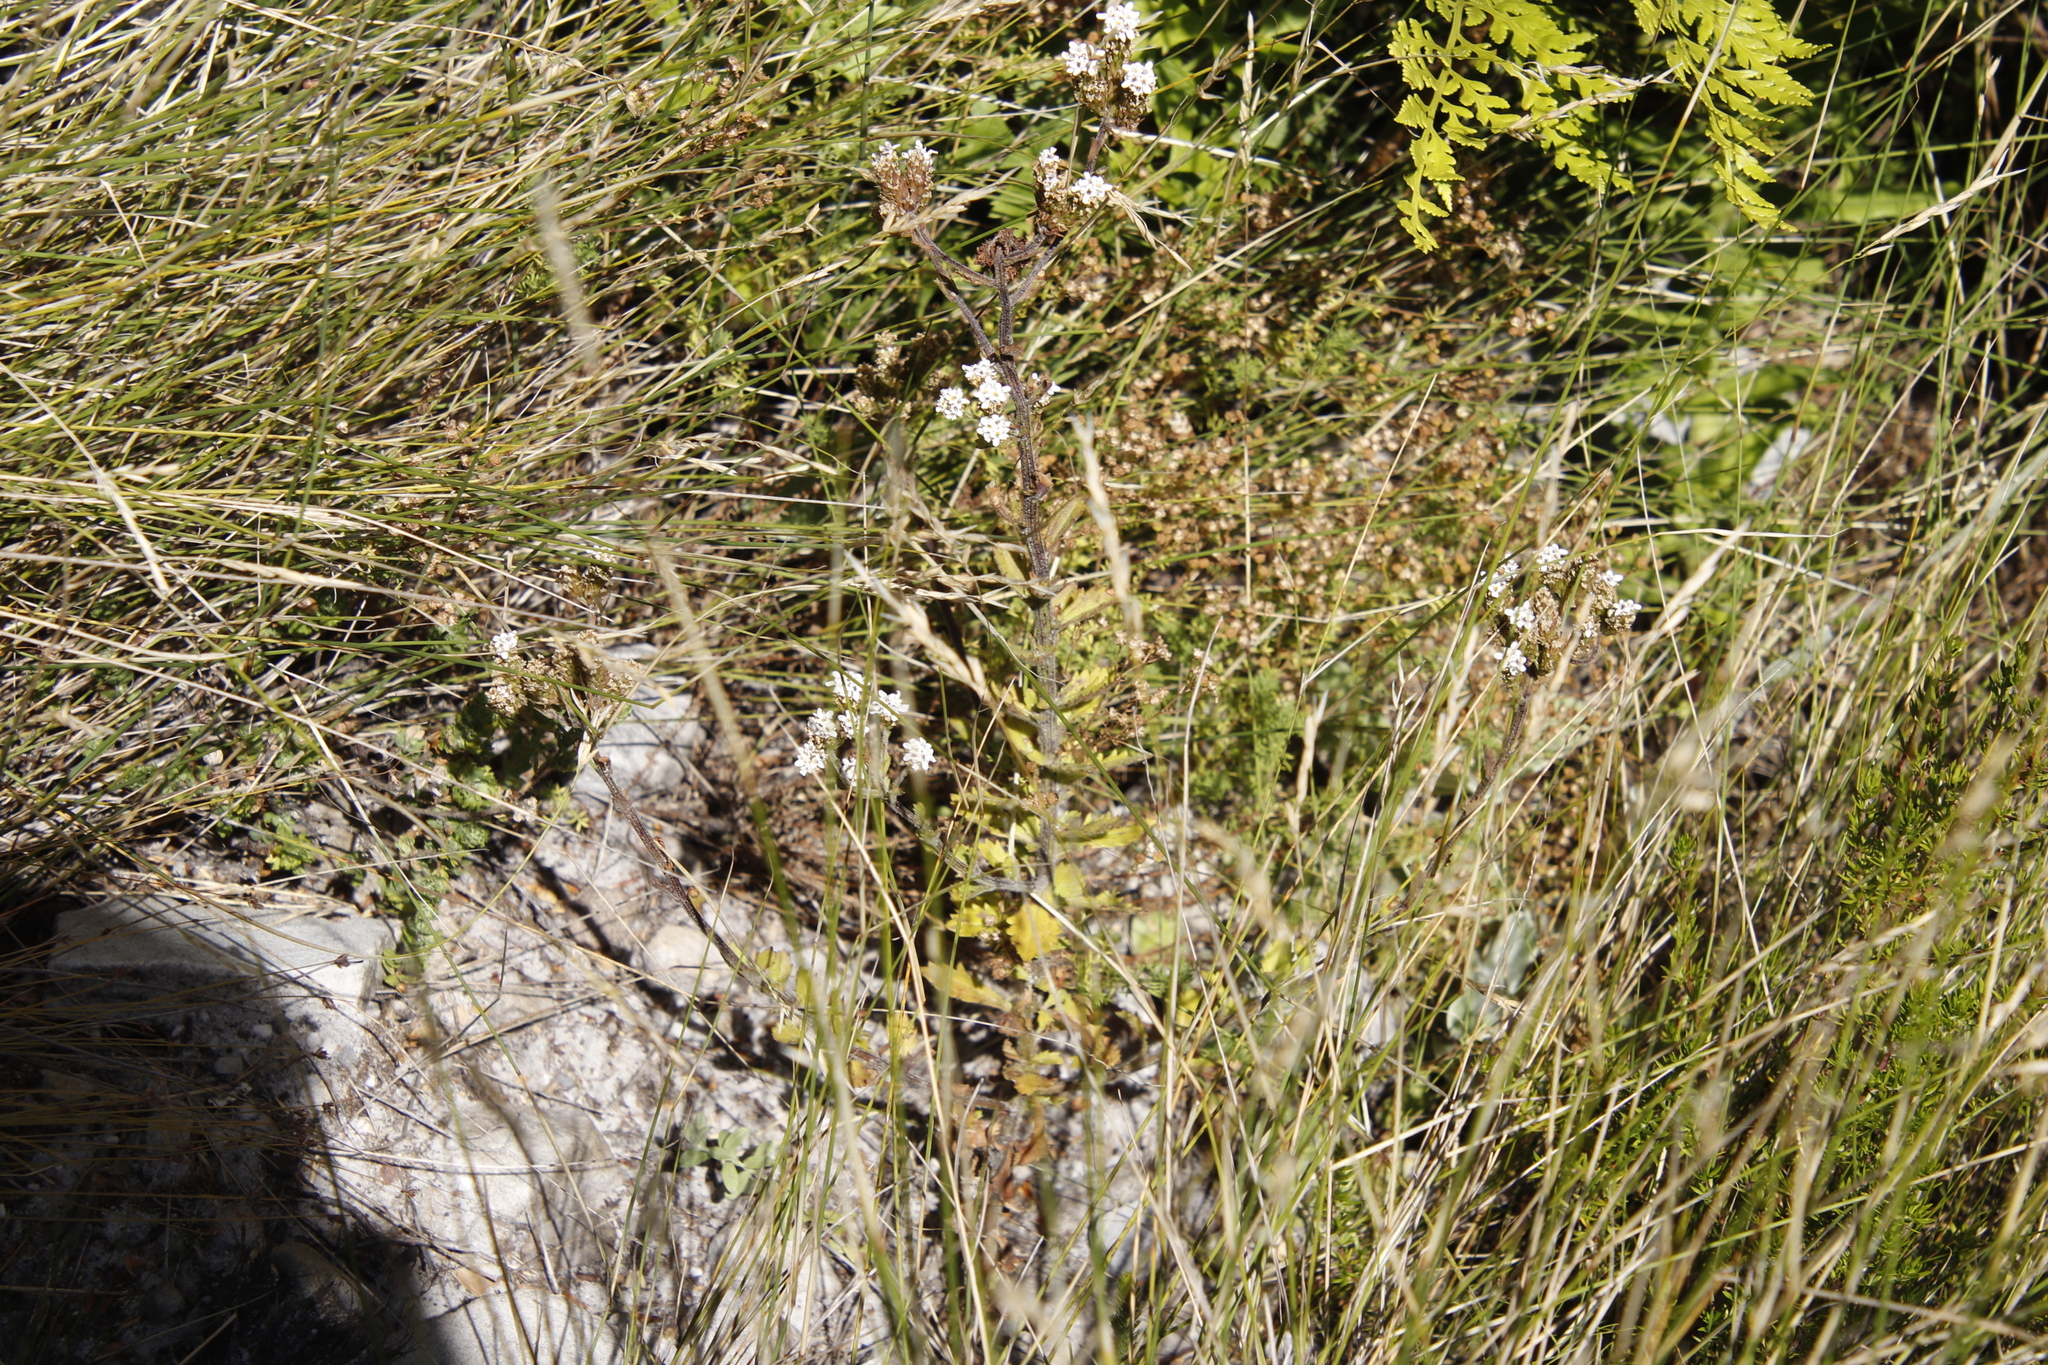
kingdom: Plantae
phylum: Tracheophyta
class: Magnoliopsida
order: Lamiales
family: Scrophulariaceae
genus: Pseudoselago
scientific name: Pseudoselago peninsulae
